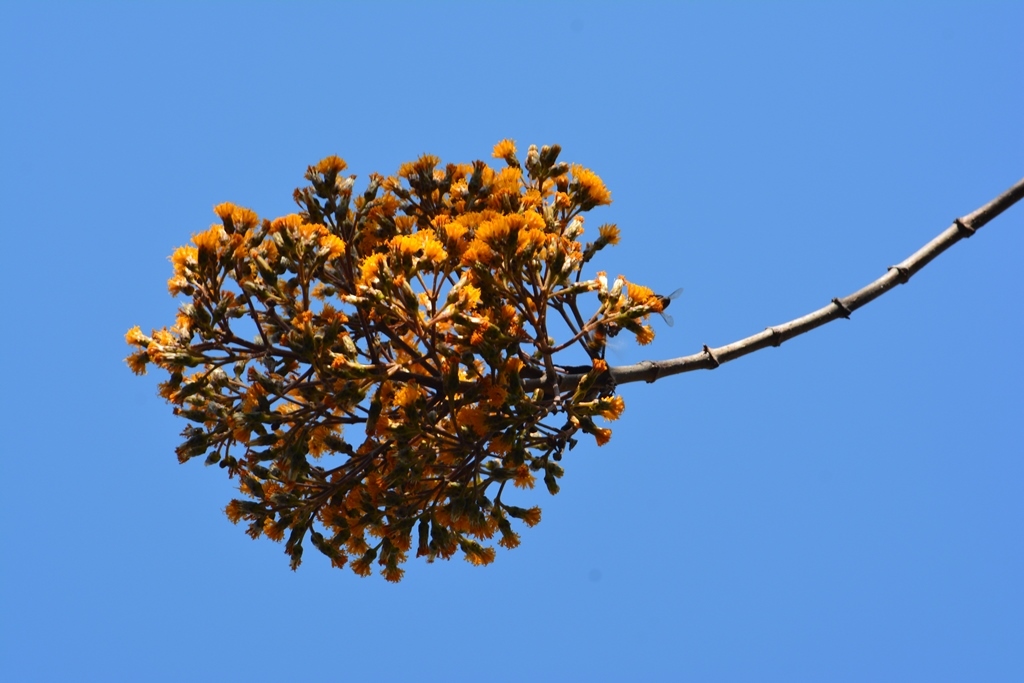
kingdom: Plantae
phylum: Tracheophyta
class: Magnoliopsida
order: Asterales
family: Asteraceae
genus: Sinclairia
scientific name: Sinclairia vagans
